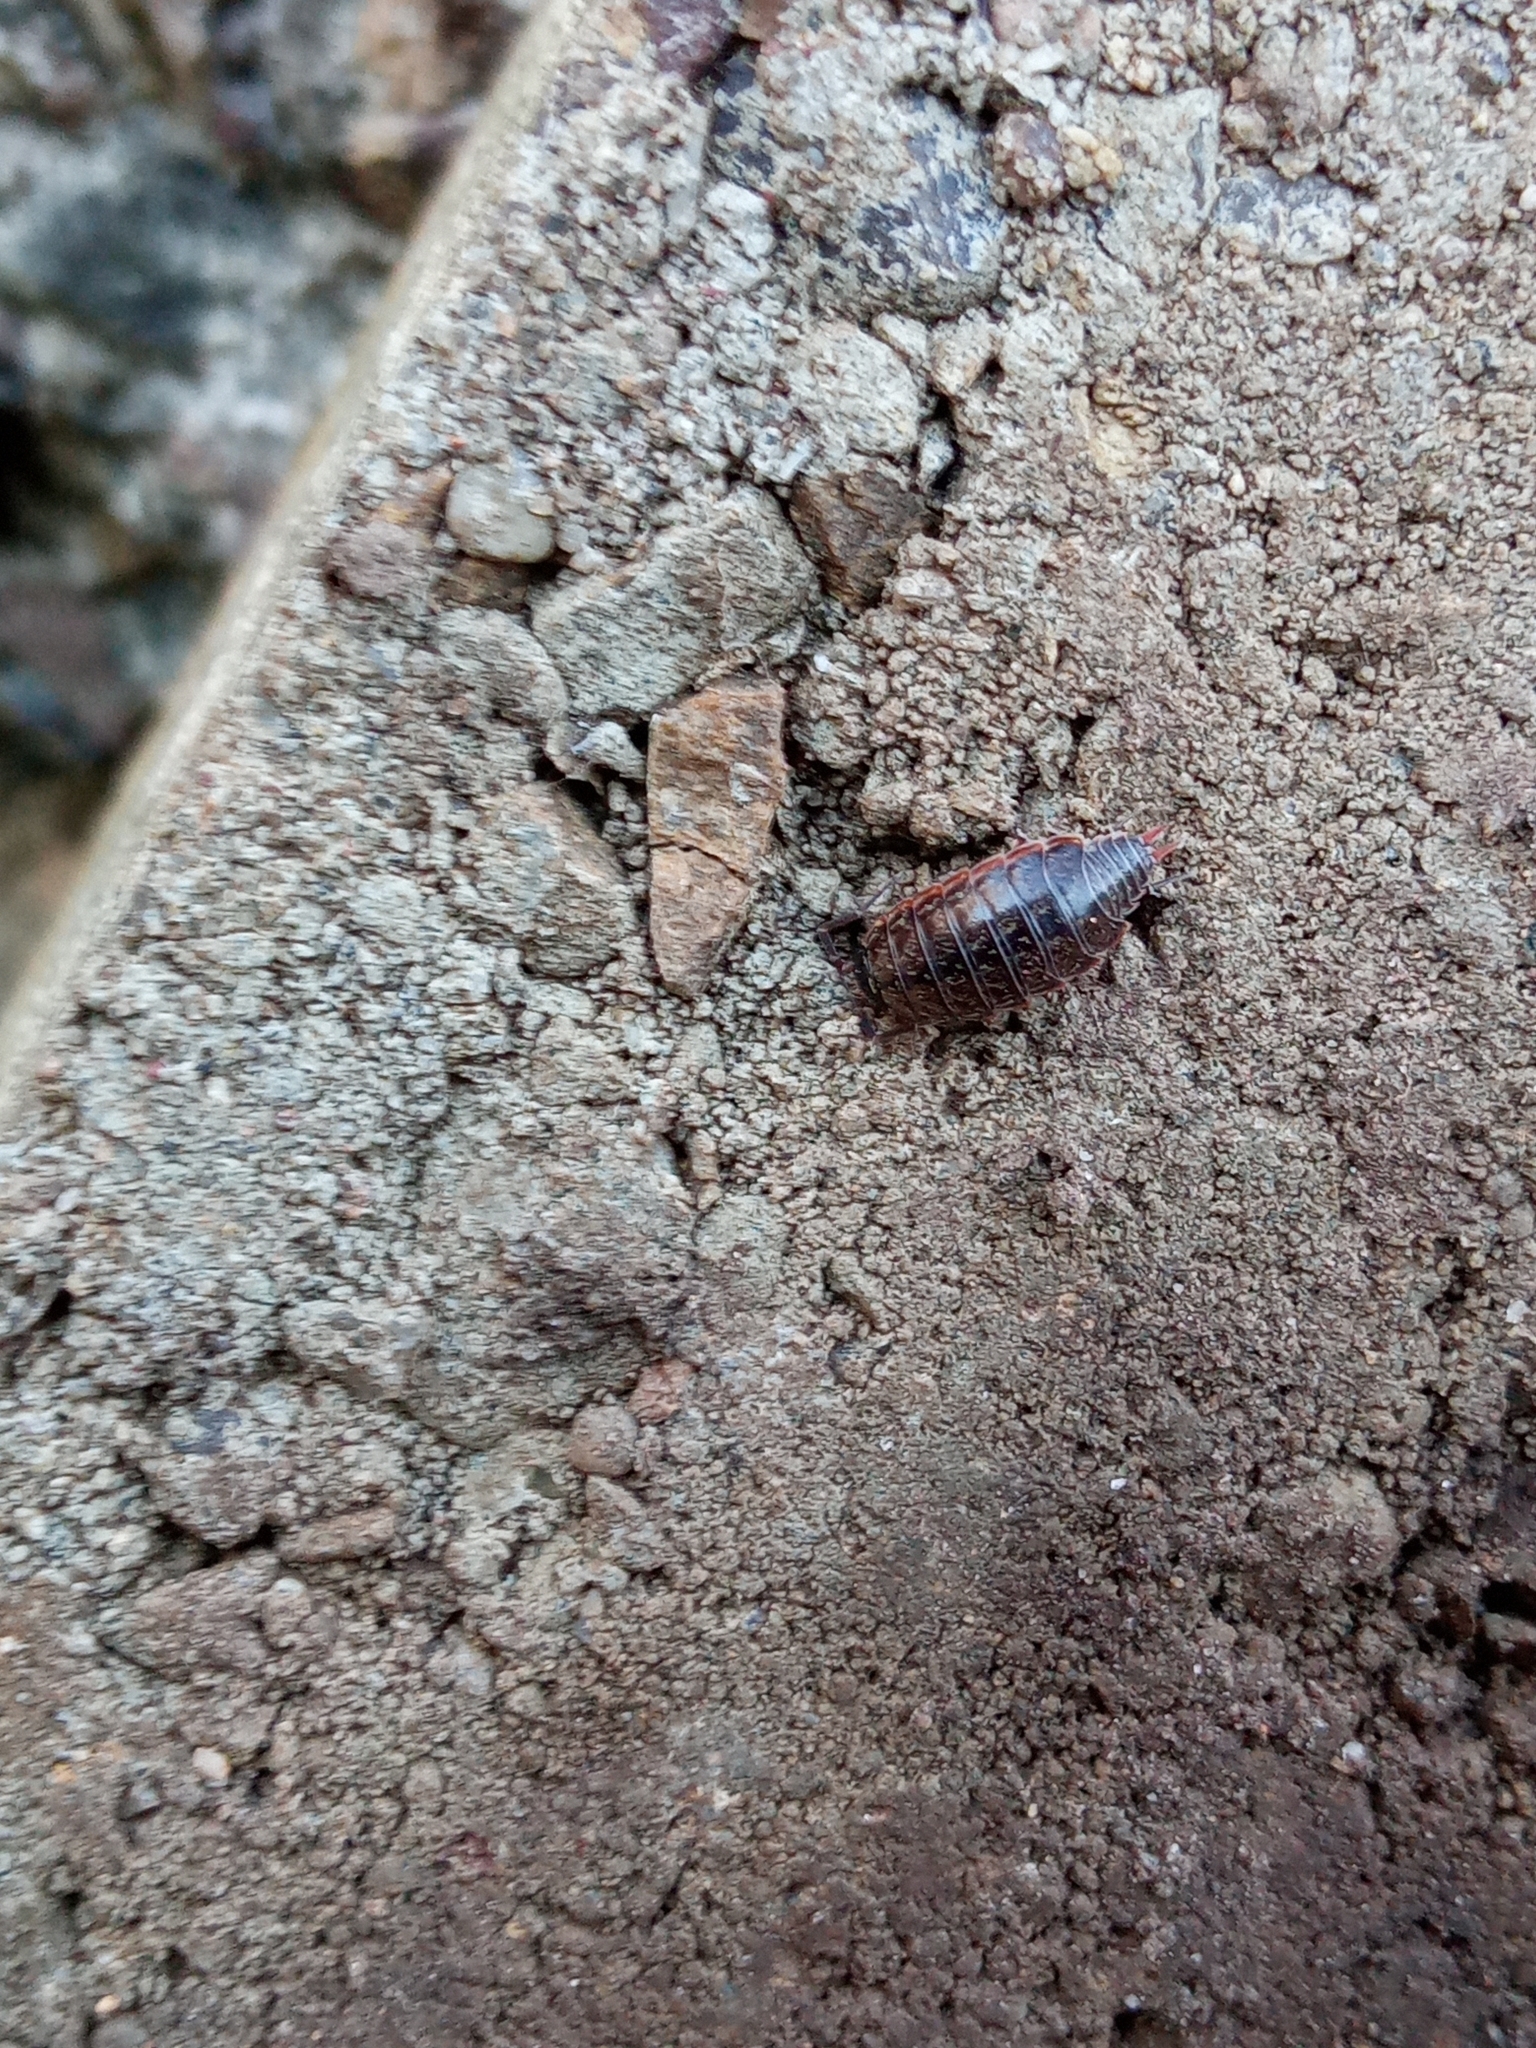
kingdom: Animalia
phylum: Arthropoda
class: Malacostraca
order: Isopoda
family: Philosciidae
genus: Philoscia
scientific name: Philoscia muscorum
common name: Common striped woodlouse
